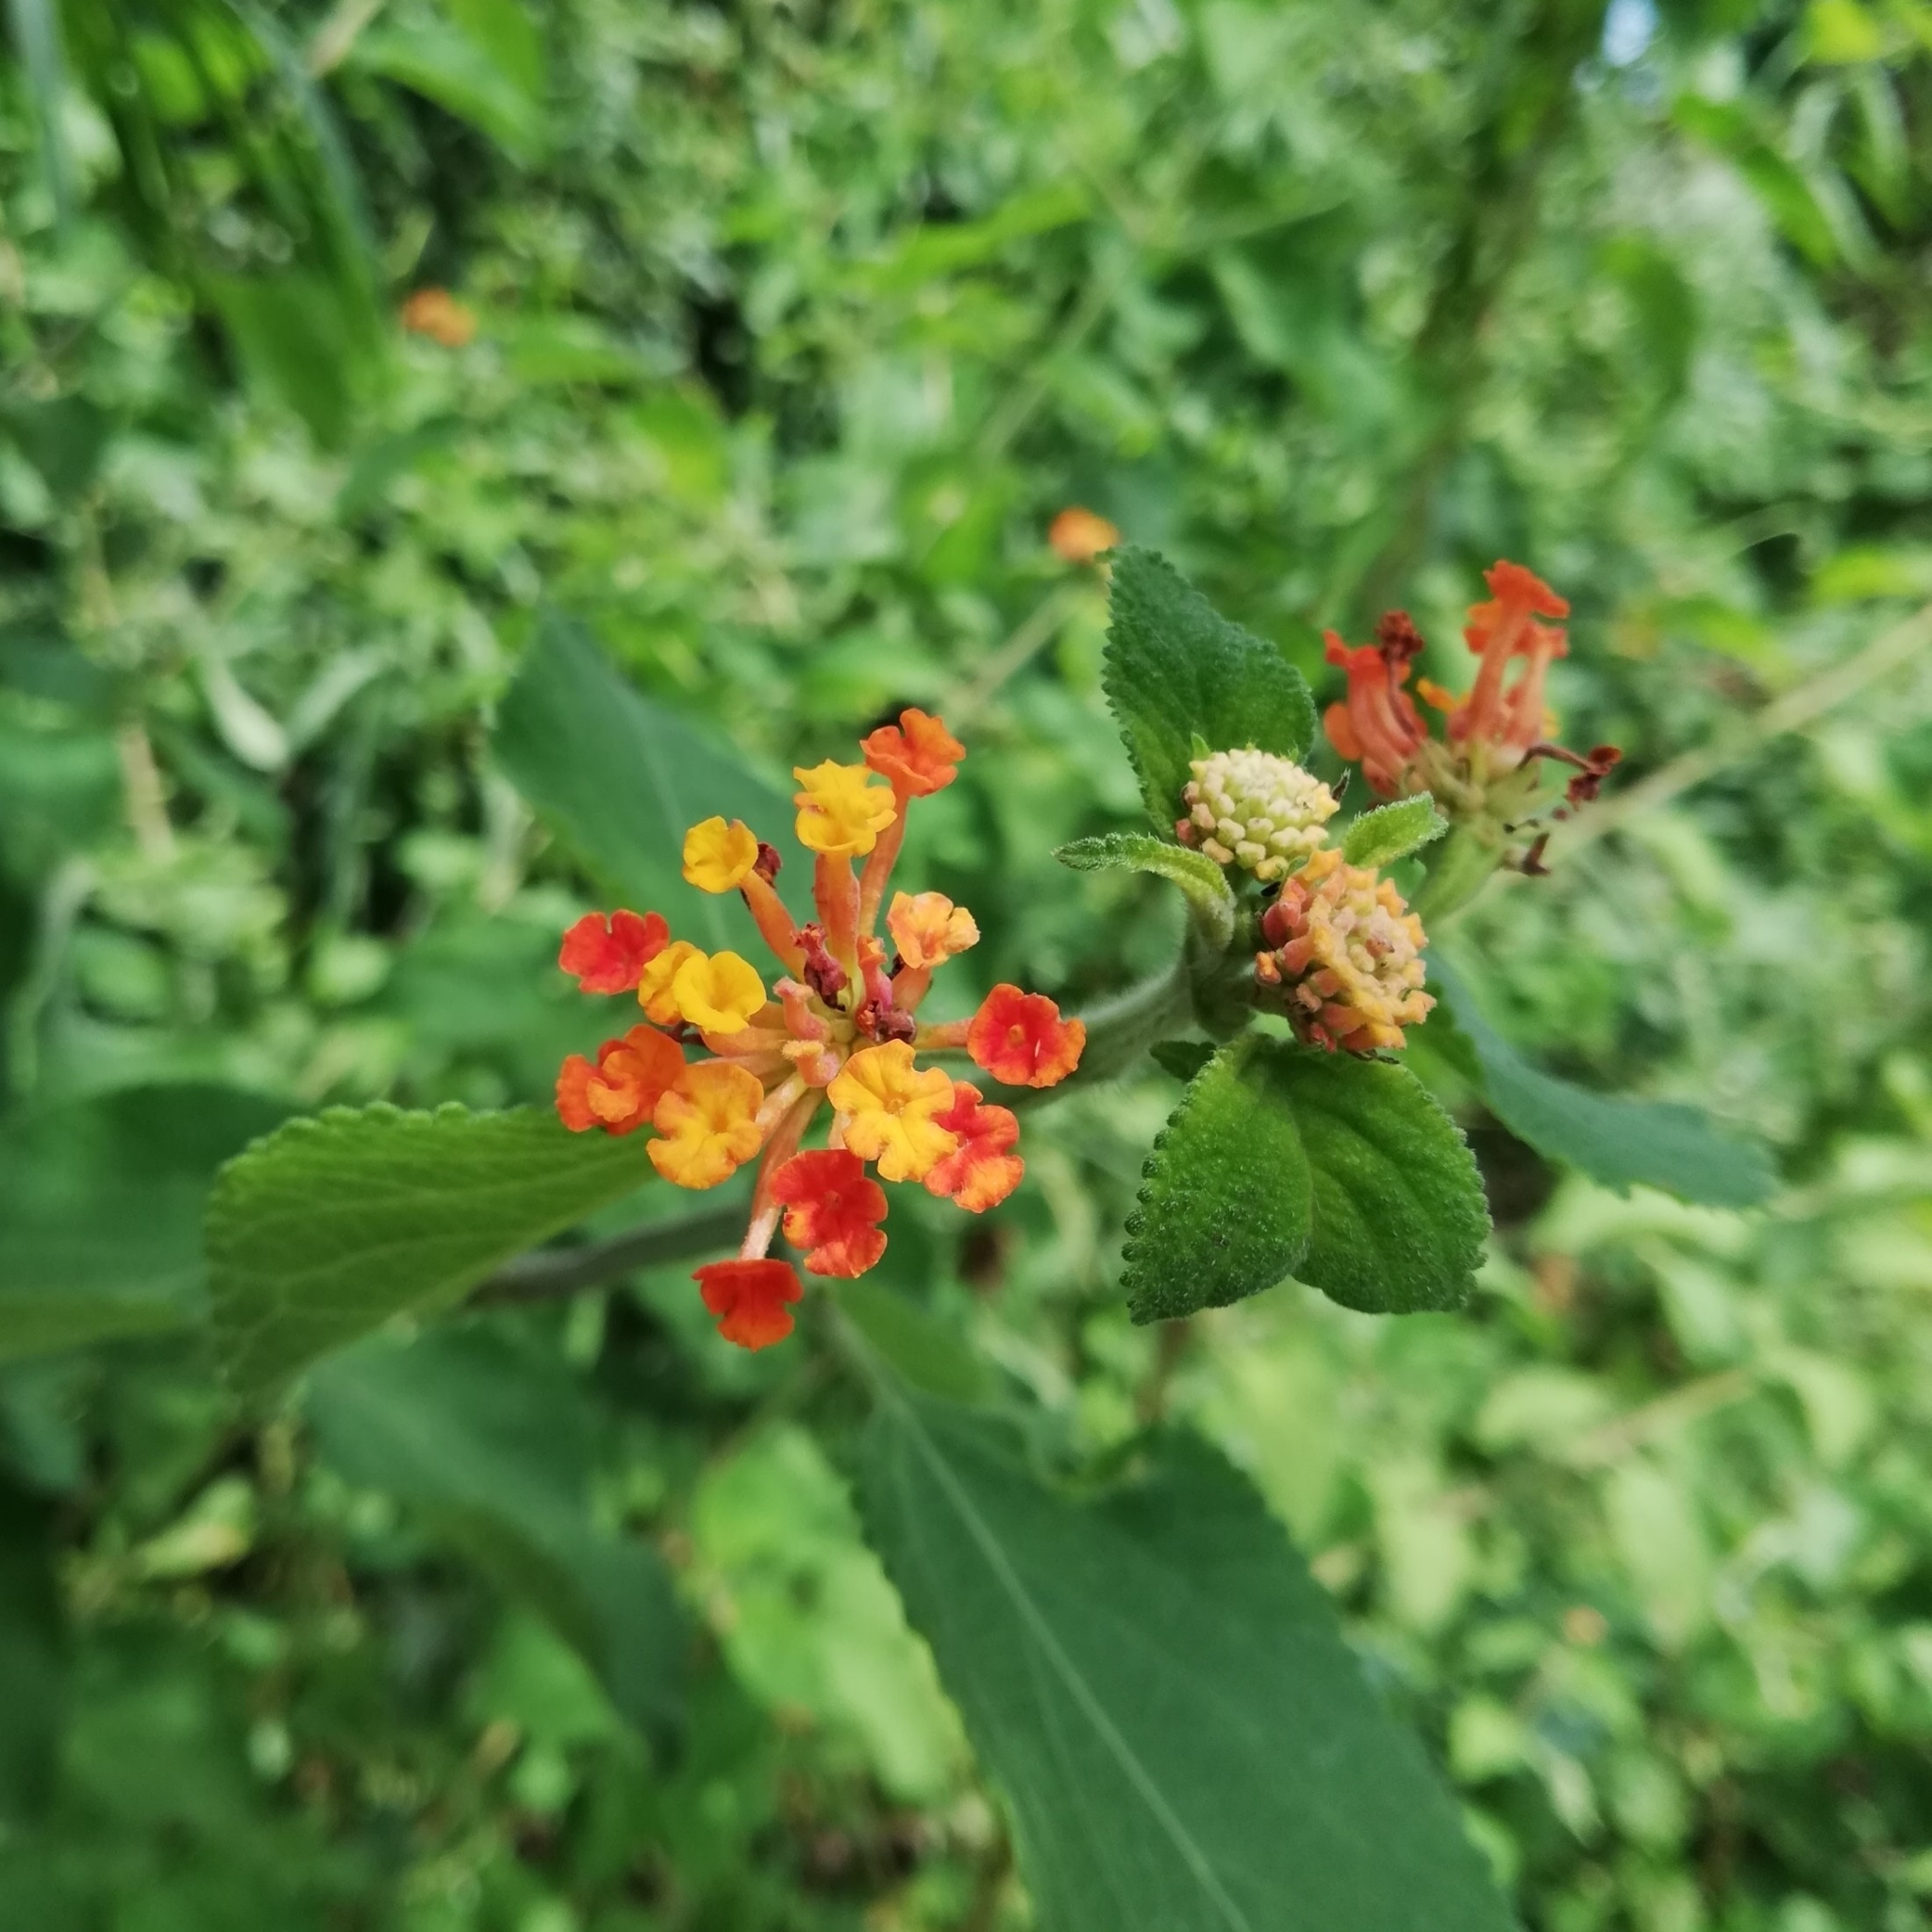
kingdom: Plantae
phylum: Tracheophyta
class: Magnoliopsida
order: Lamiales
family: Verbenaceae
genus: Lantana
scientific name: Lantana camara
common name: Lantana
